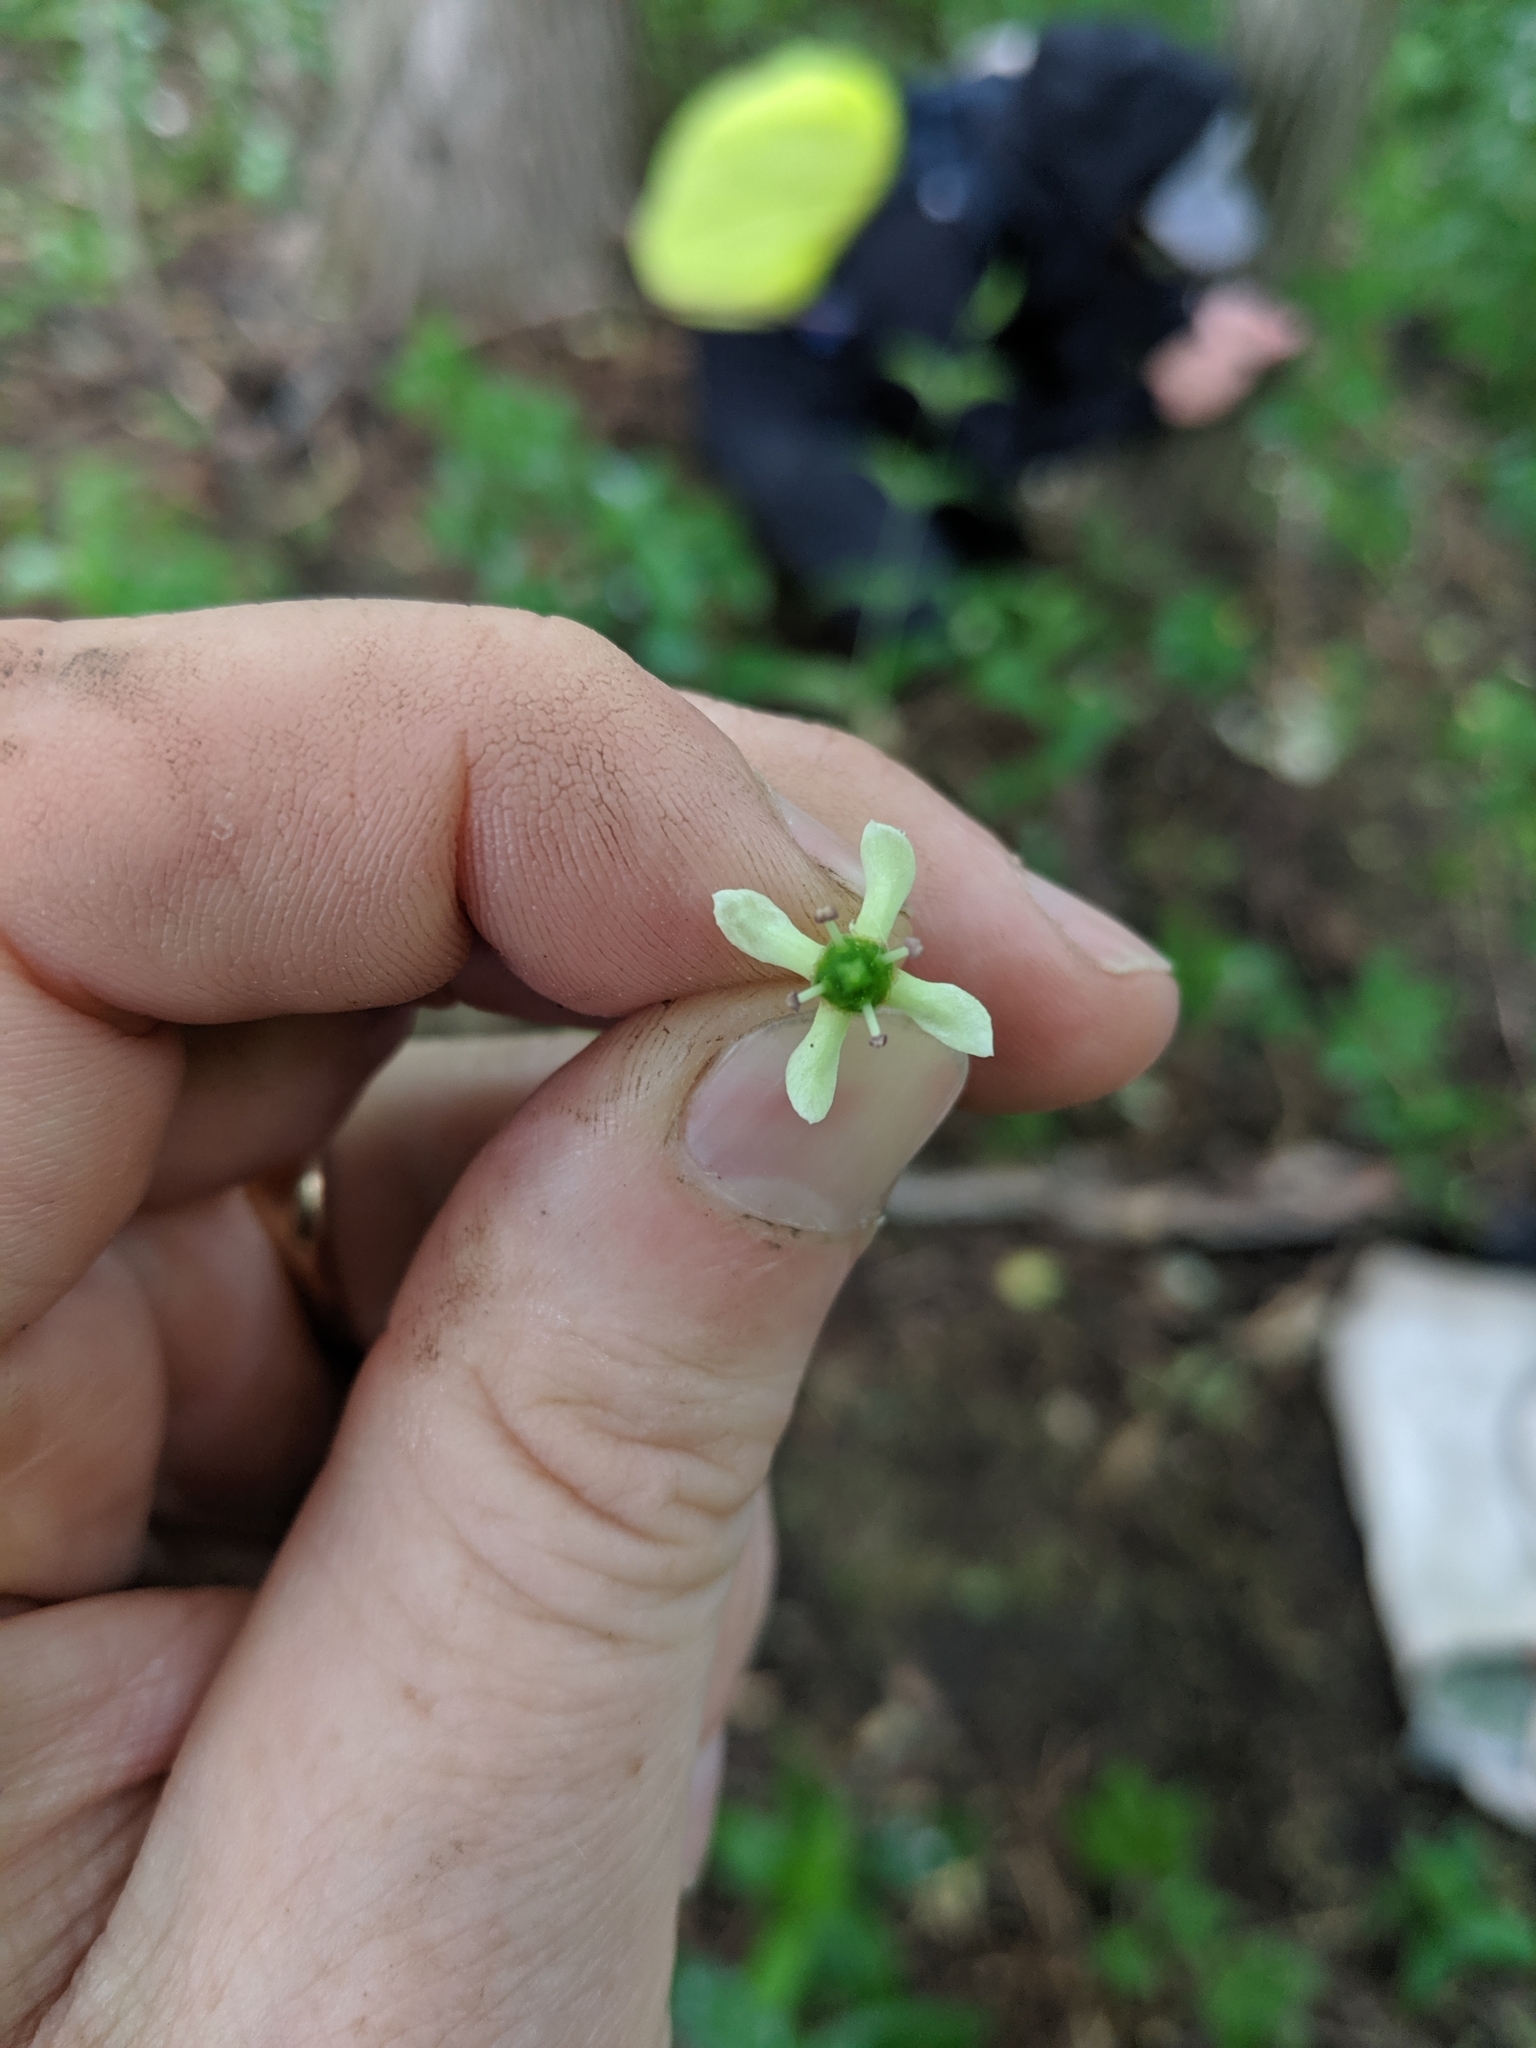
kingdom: Plantae
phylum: Tracheophyta
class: Magnoliopsida
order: Celastrales
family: Celastraceae
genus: Euonymus
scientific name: Euonymus hamiltonianus
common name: Hamilton's spindletree
